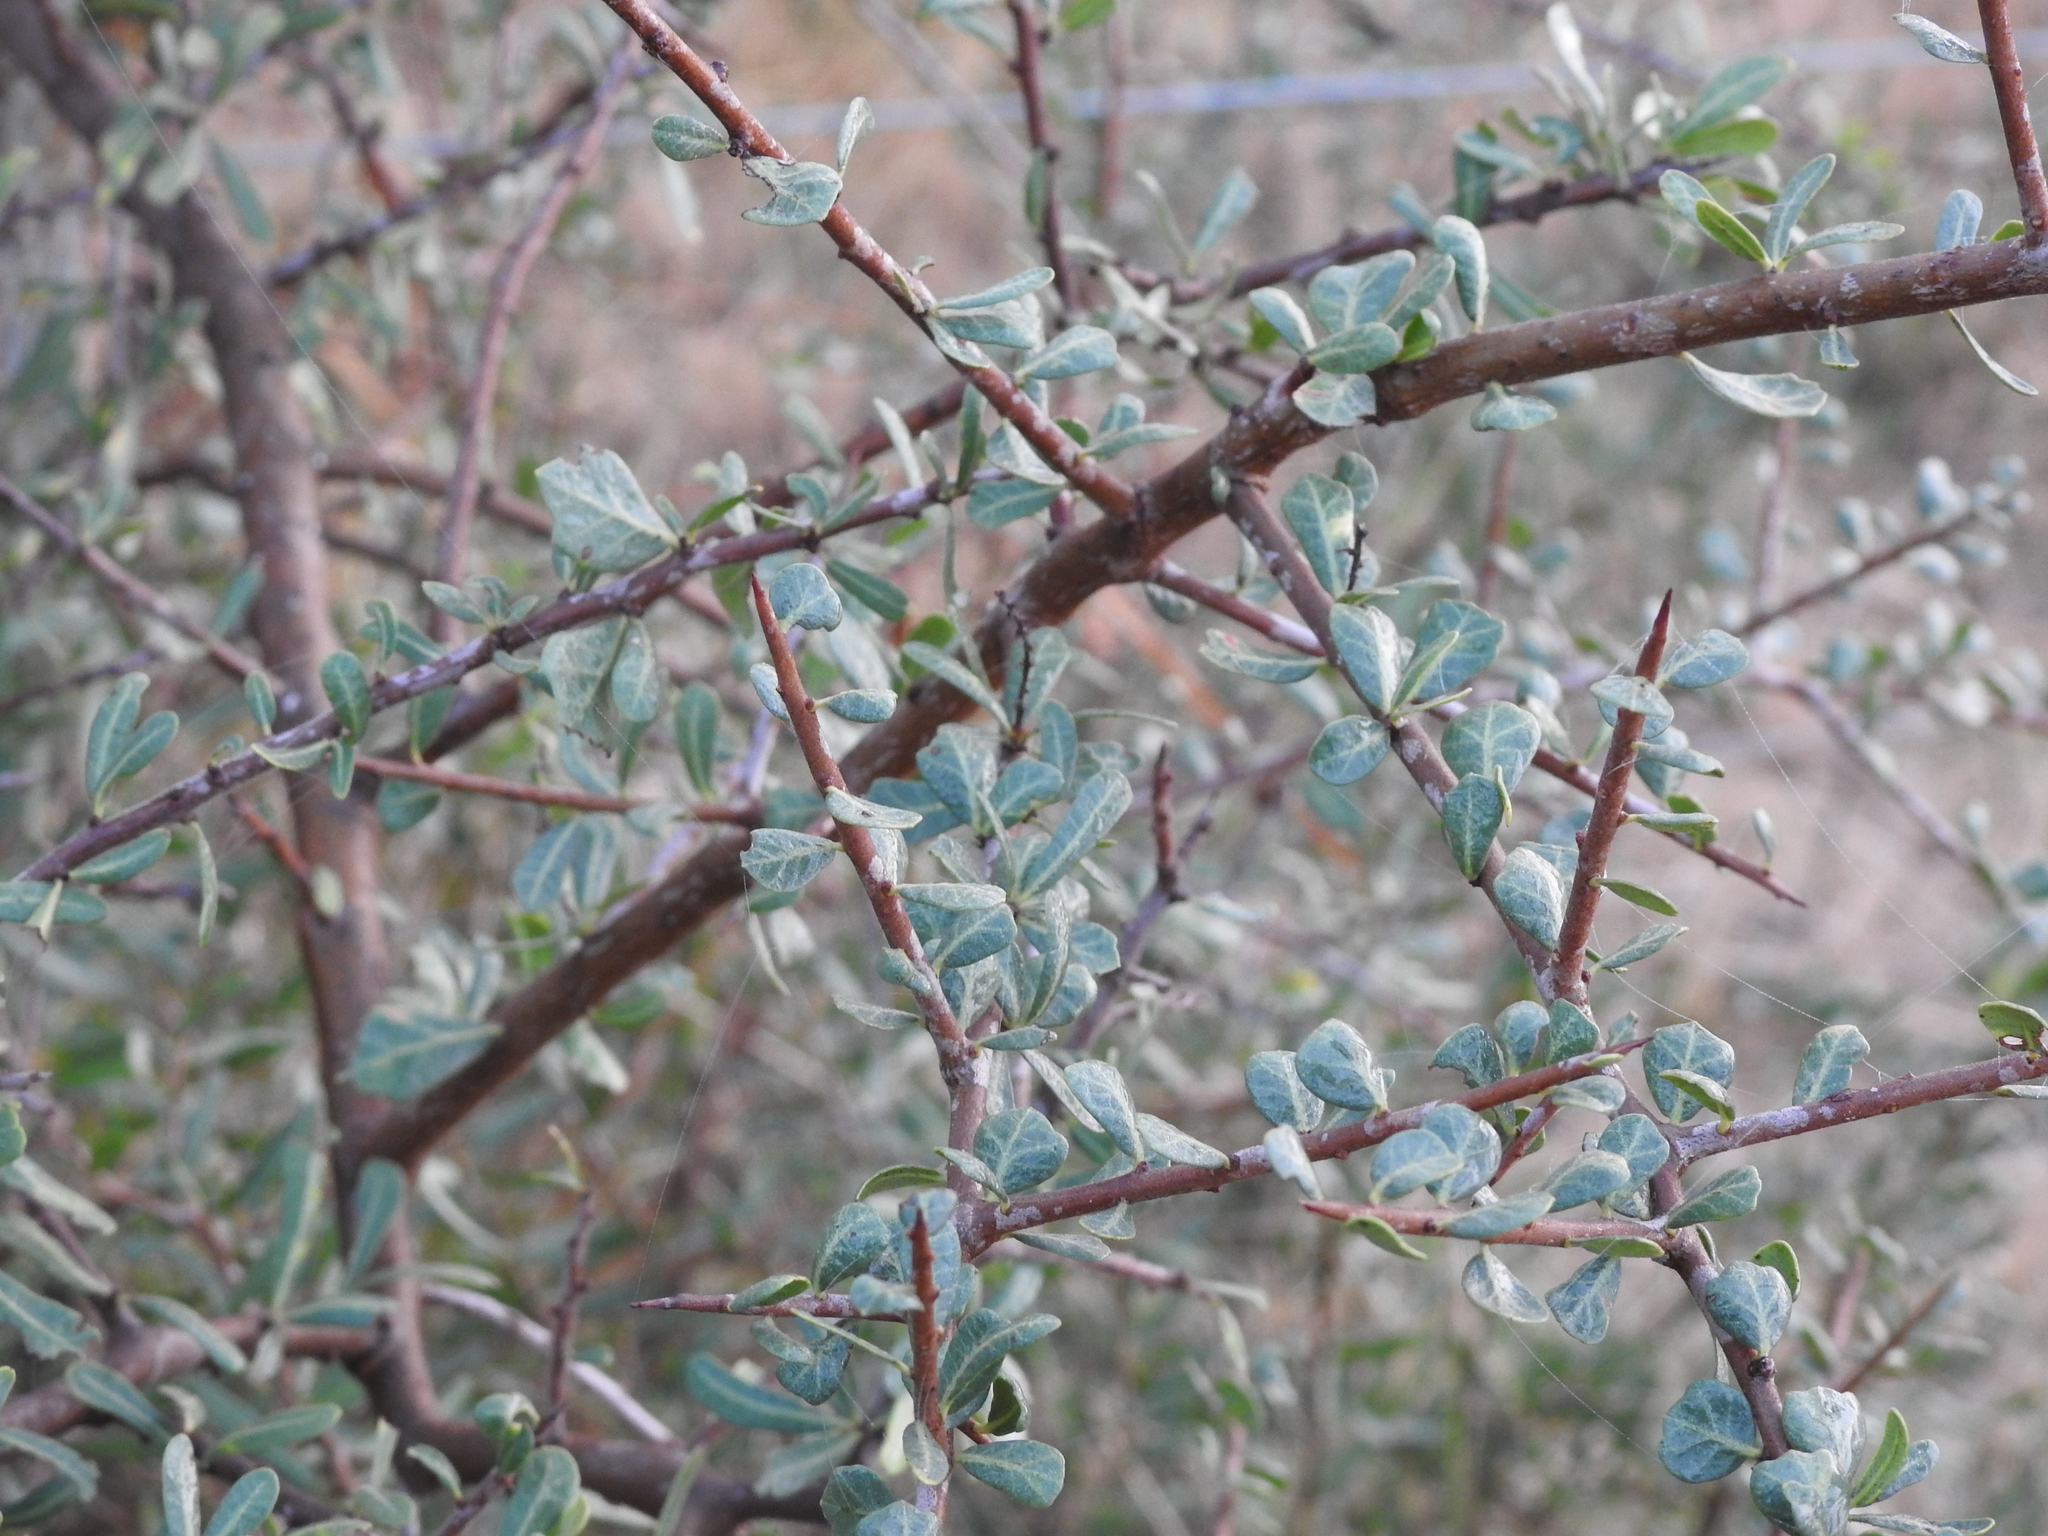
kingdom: Plantae
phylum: Tracheophyta
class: Magnoliopsida
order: Sapindales
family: Anacardiaceae
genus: Schinus
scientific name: Schinus fasciculata
